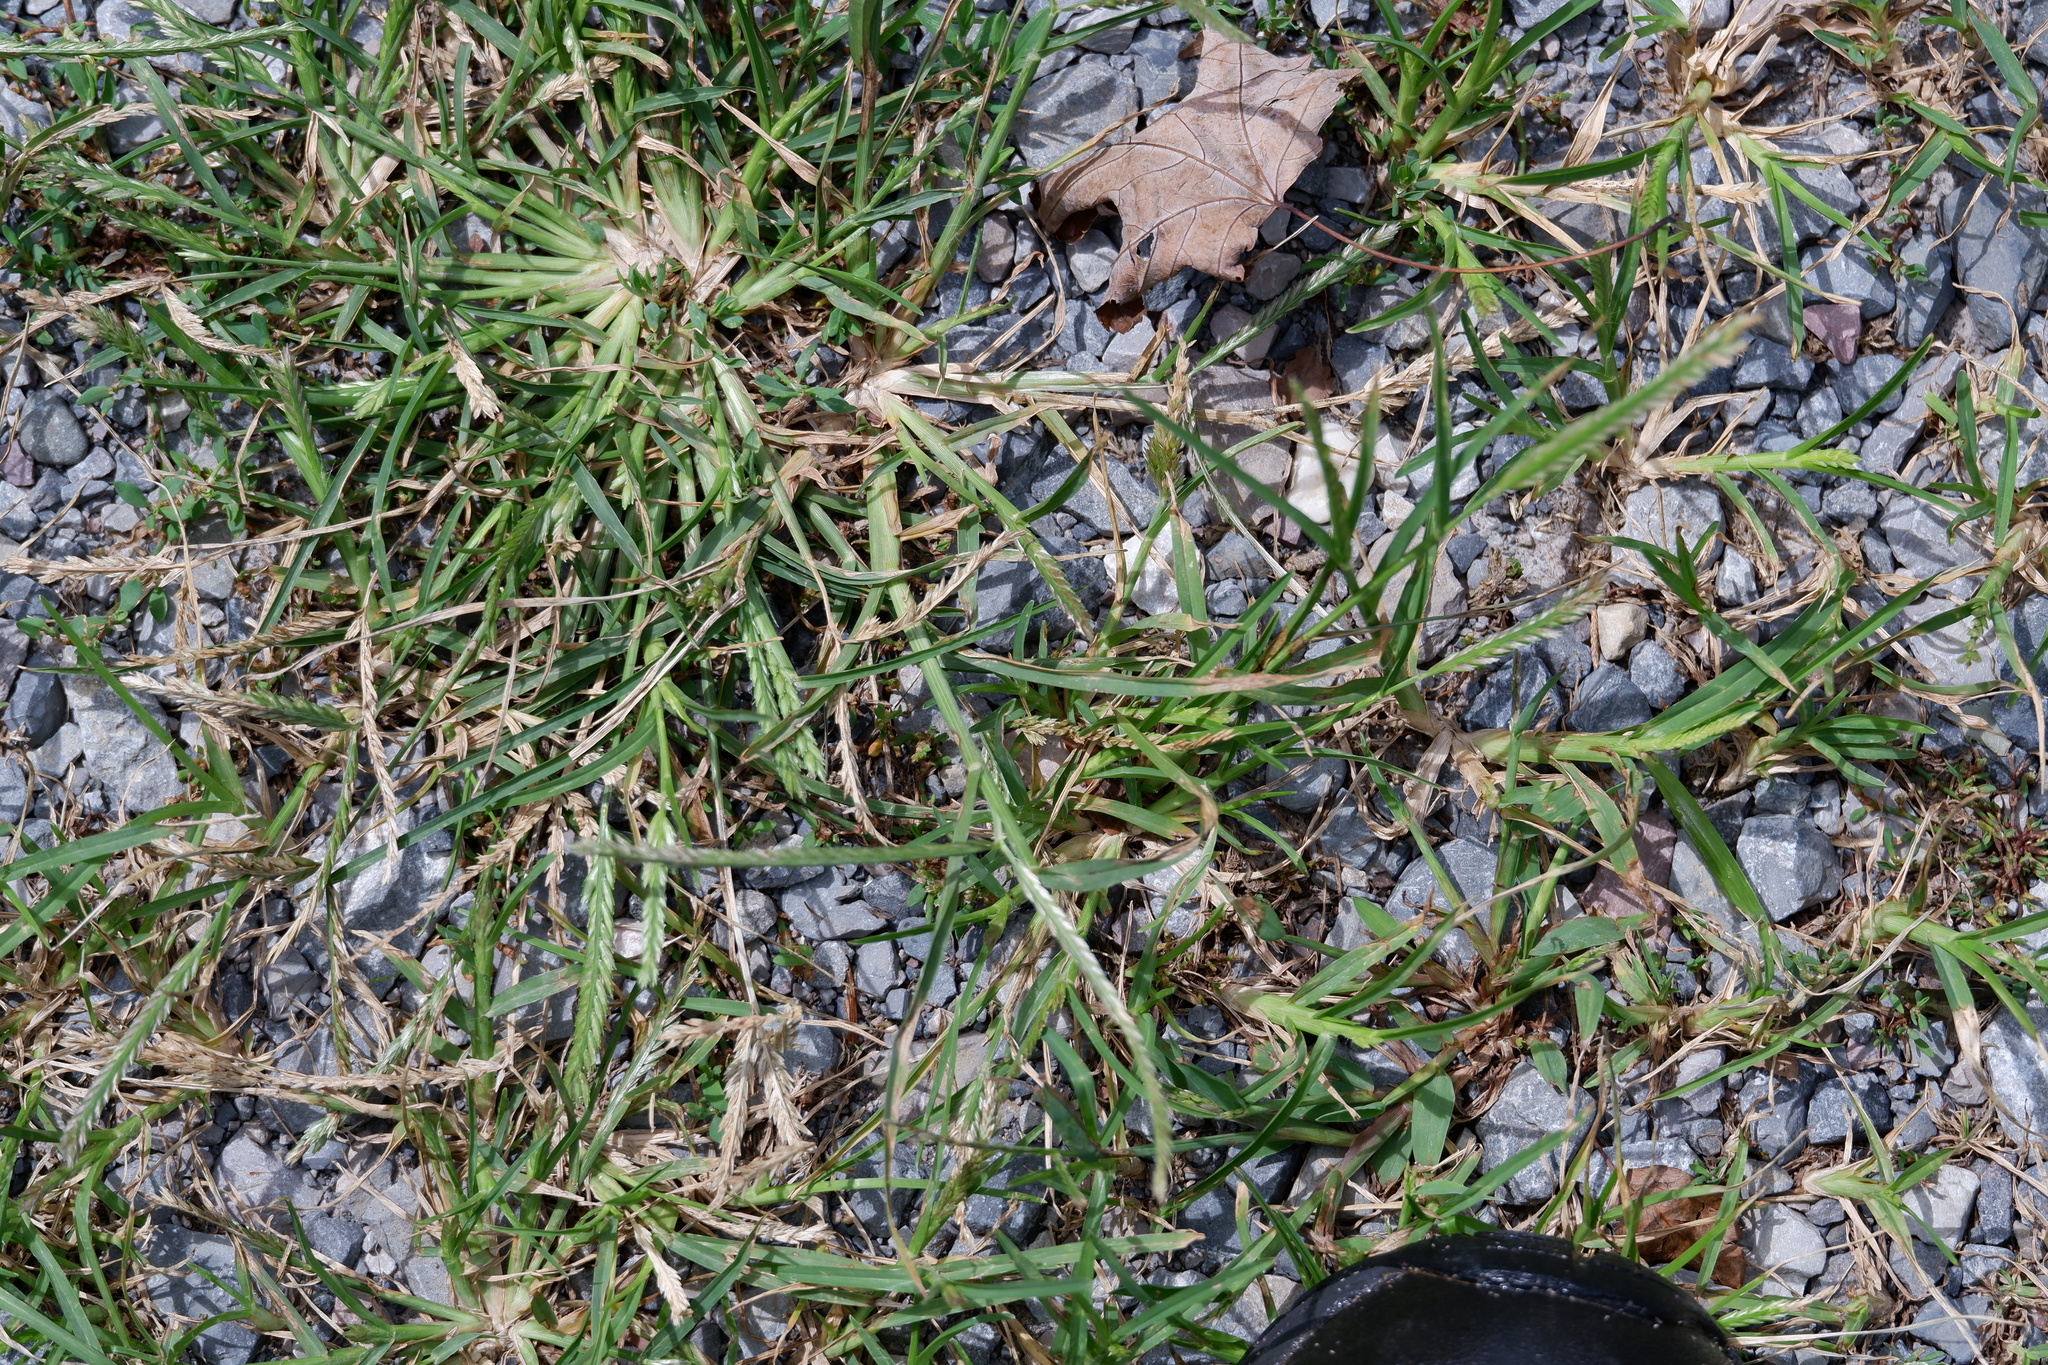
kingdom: Plantae
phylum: Tracheophyta
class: Liliopsida
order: Poales
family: Poaceae
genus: Eleusine
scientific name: Eleusine indica
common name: Yard-grass
